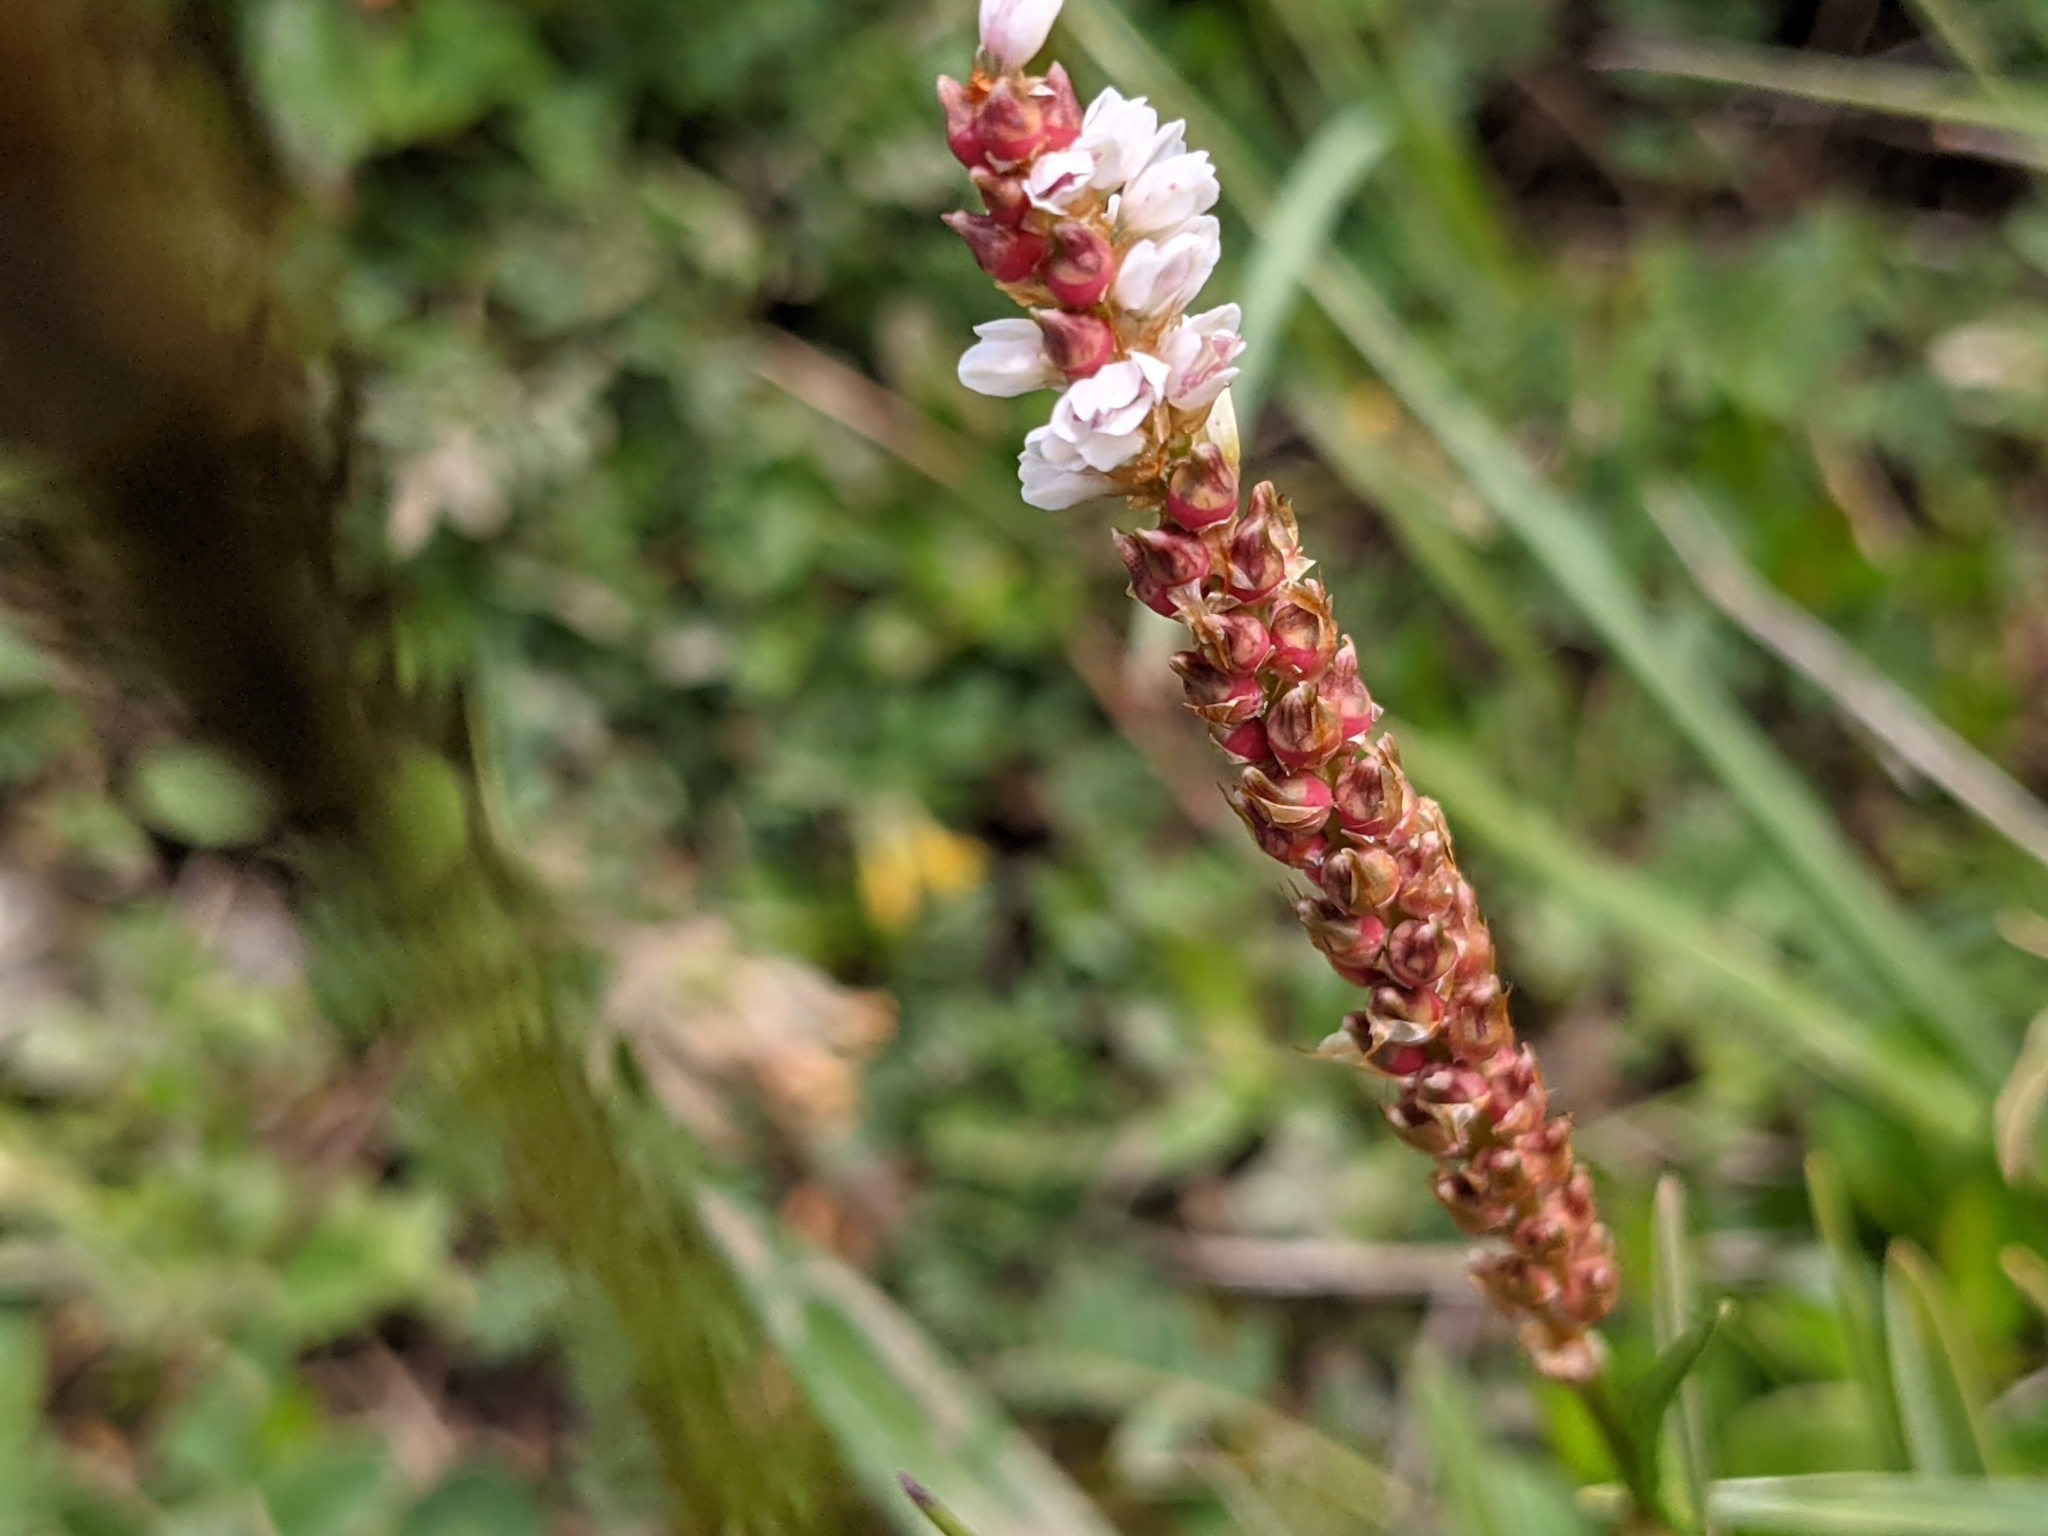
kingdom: Plantae
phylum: Tracheophyta
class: Magnoliopsida
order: Caryophyllales
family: Polygonaceae
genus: Bistorta
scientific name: Bistorta vivipara
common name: Alpine bistort
